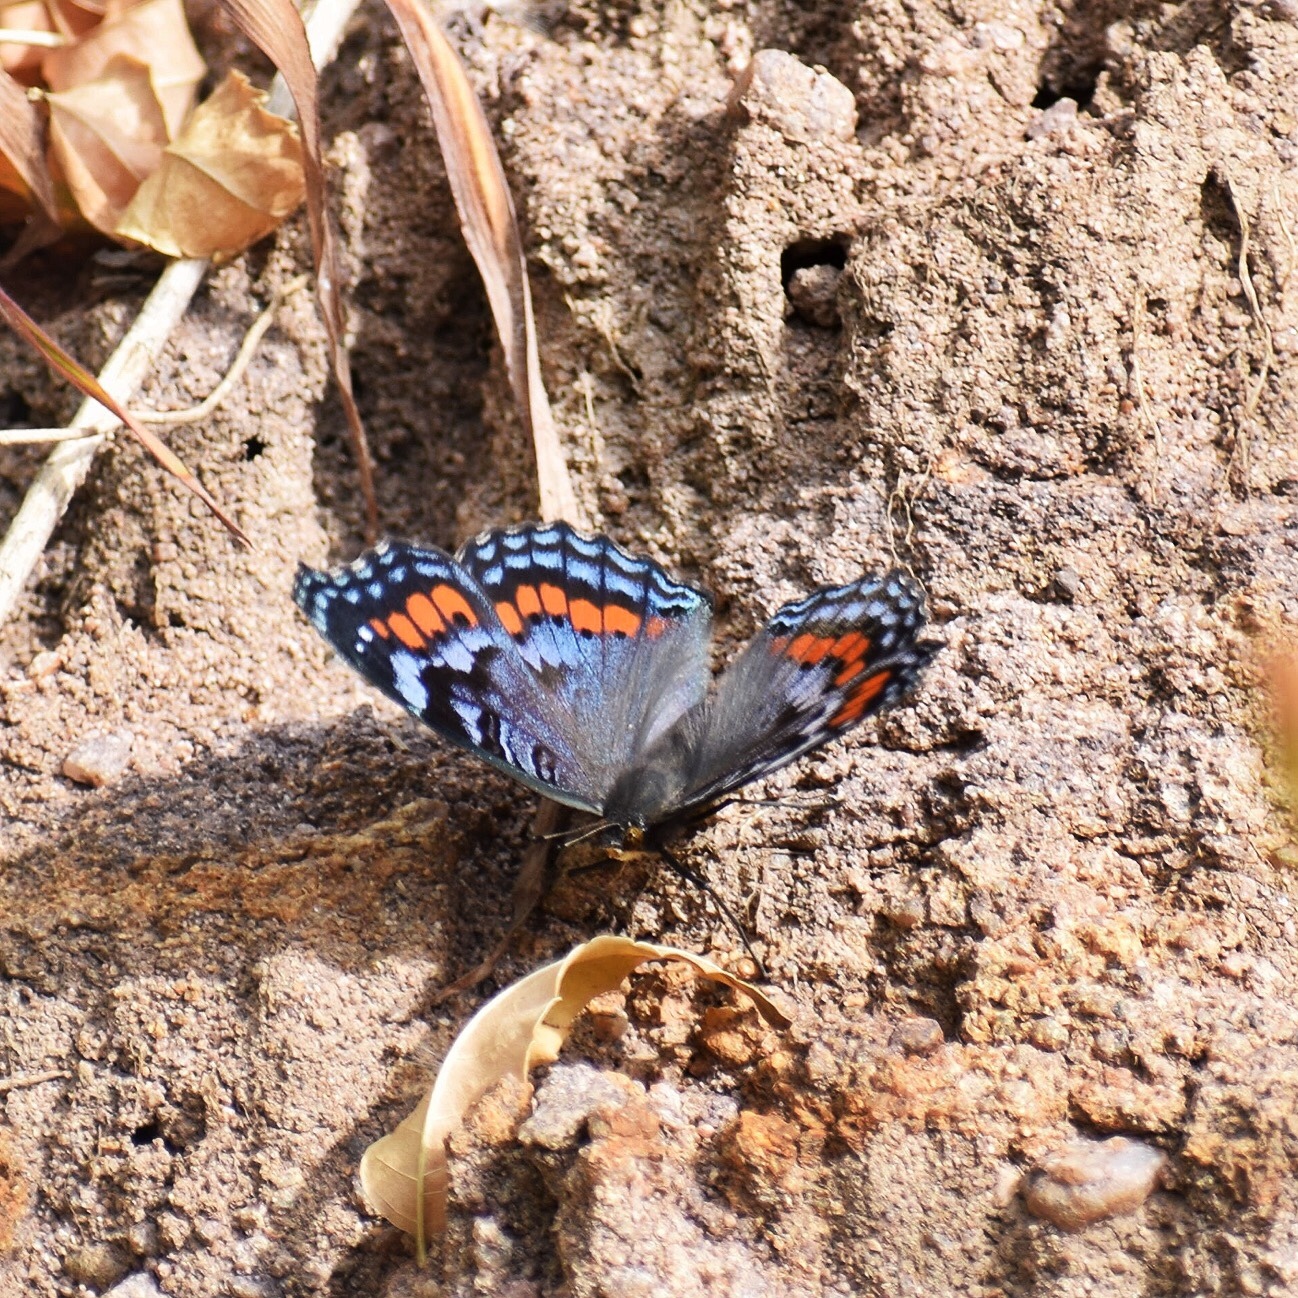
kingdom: Animalia
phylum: Arthropoda
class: Insecta
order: Lepidoptera
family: Nymphalidae
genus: Precis
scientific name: Precis octavia
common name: Gaudy commodore
